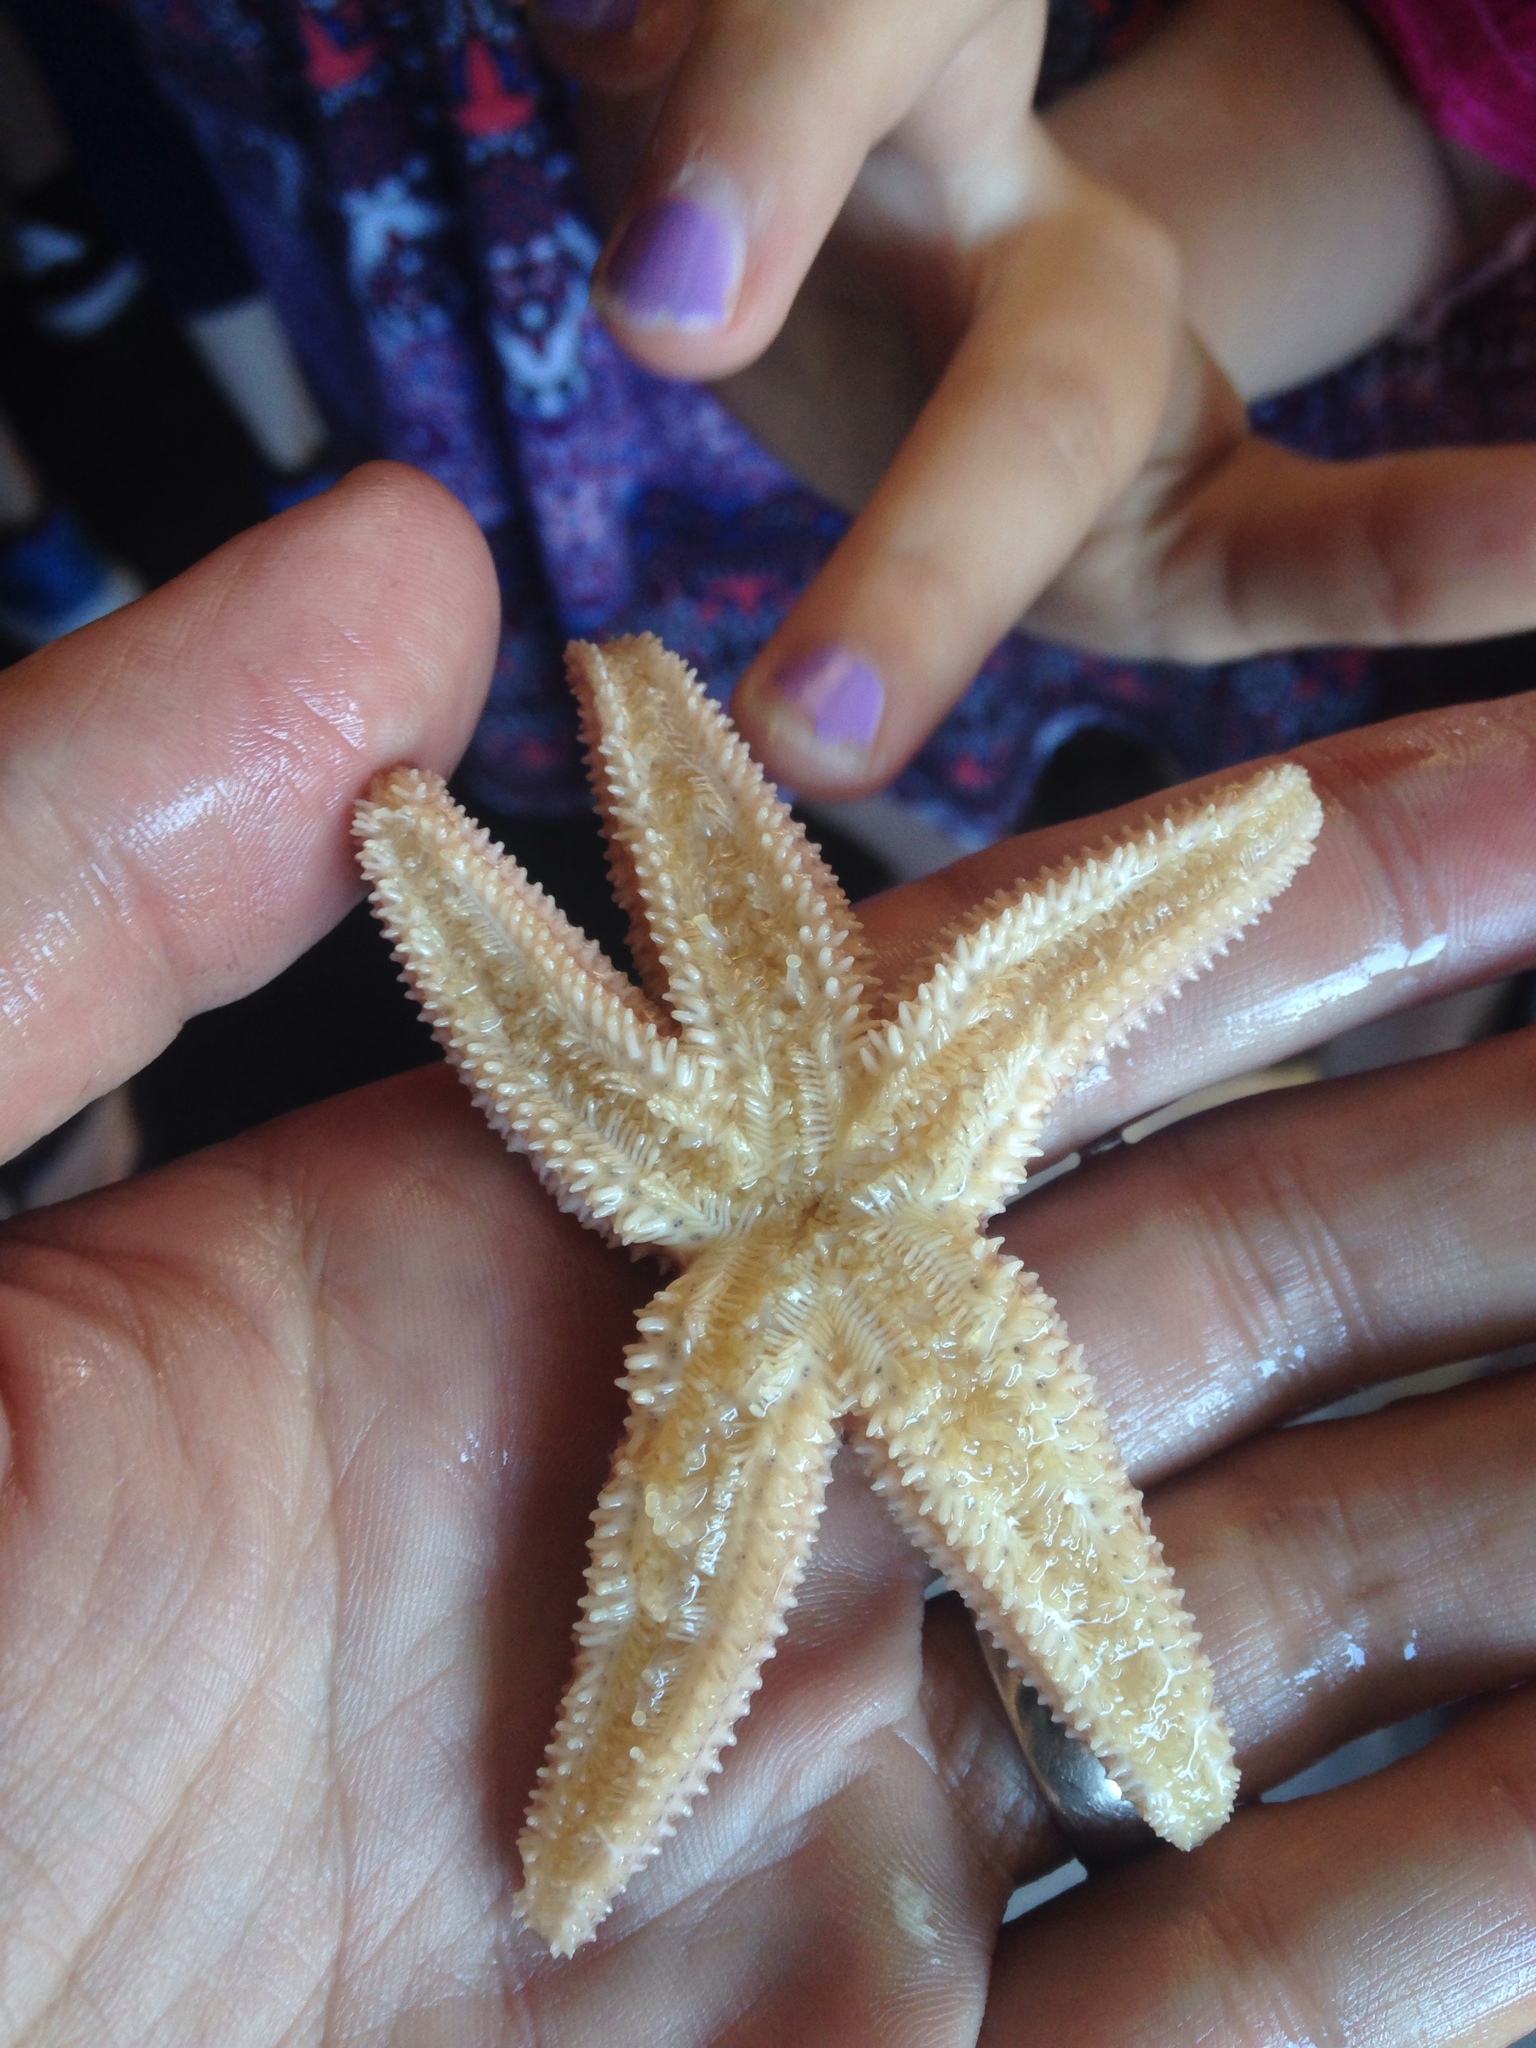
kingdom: Animalia
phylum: Echinodermata
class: Asteroidea
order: Forcipulatida
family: Asteriidae
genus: Asterias
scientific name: Asterias rubens
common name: Common starfish
